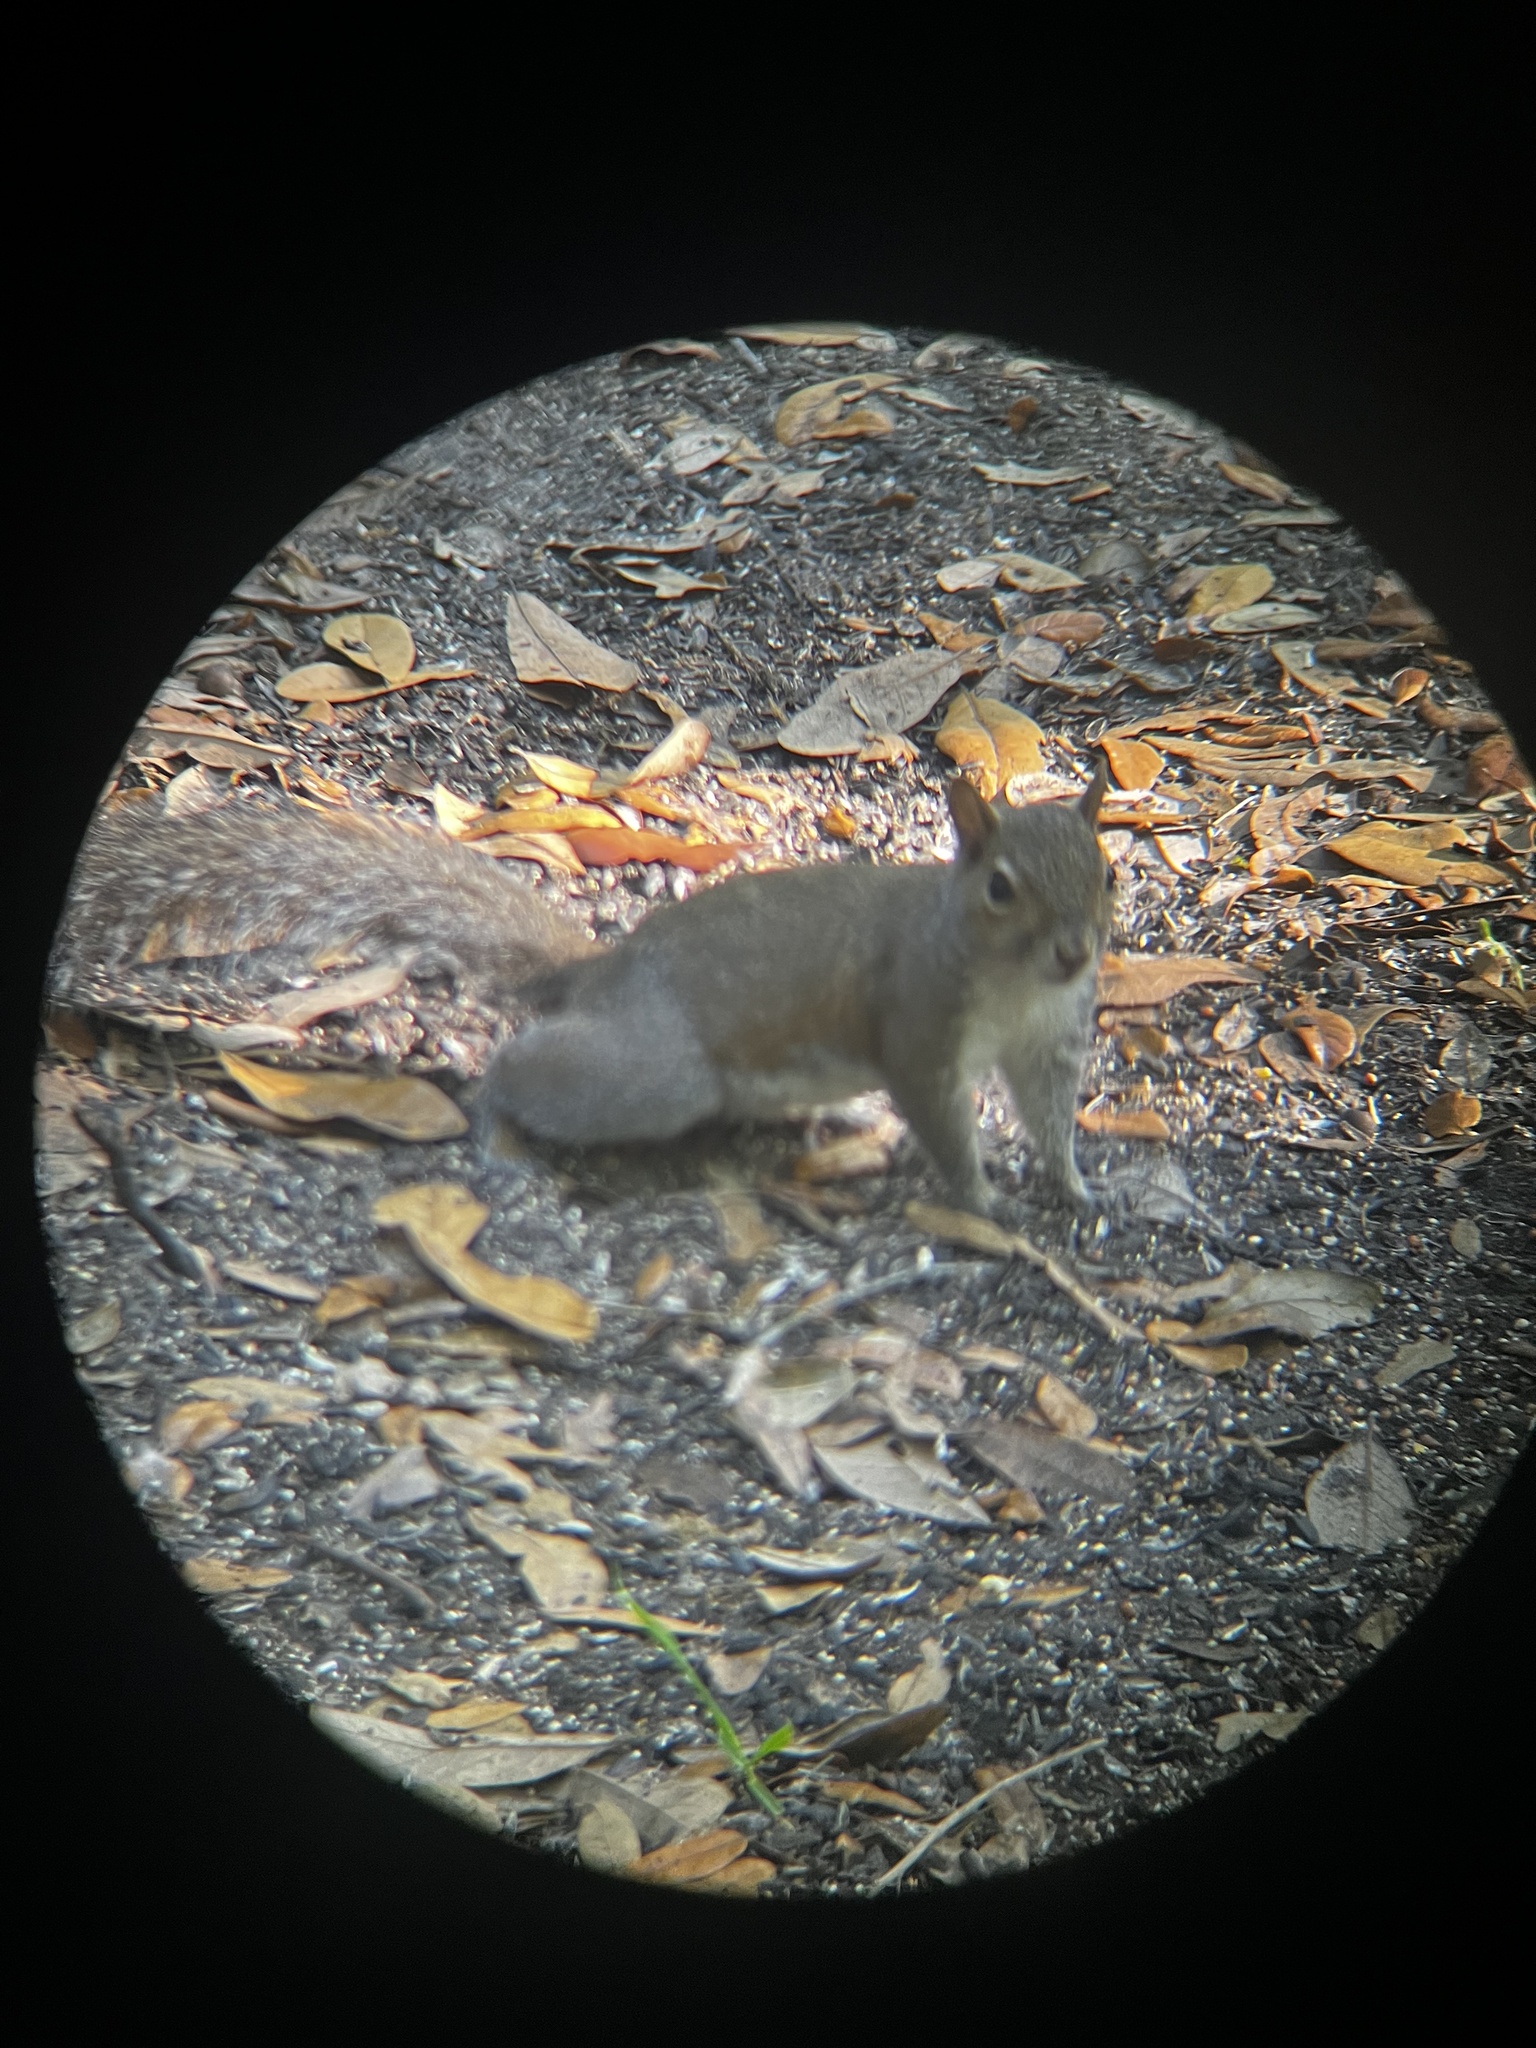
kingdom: Animalia
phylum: Chordata
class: Mammalia
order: Rodentia
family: Sciuridae
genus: Sciurus
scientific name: Sciurus carolinensis
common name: Eastern gray squirrel
